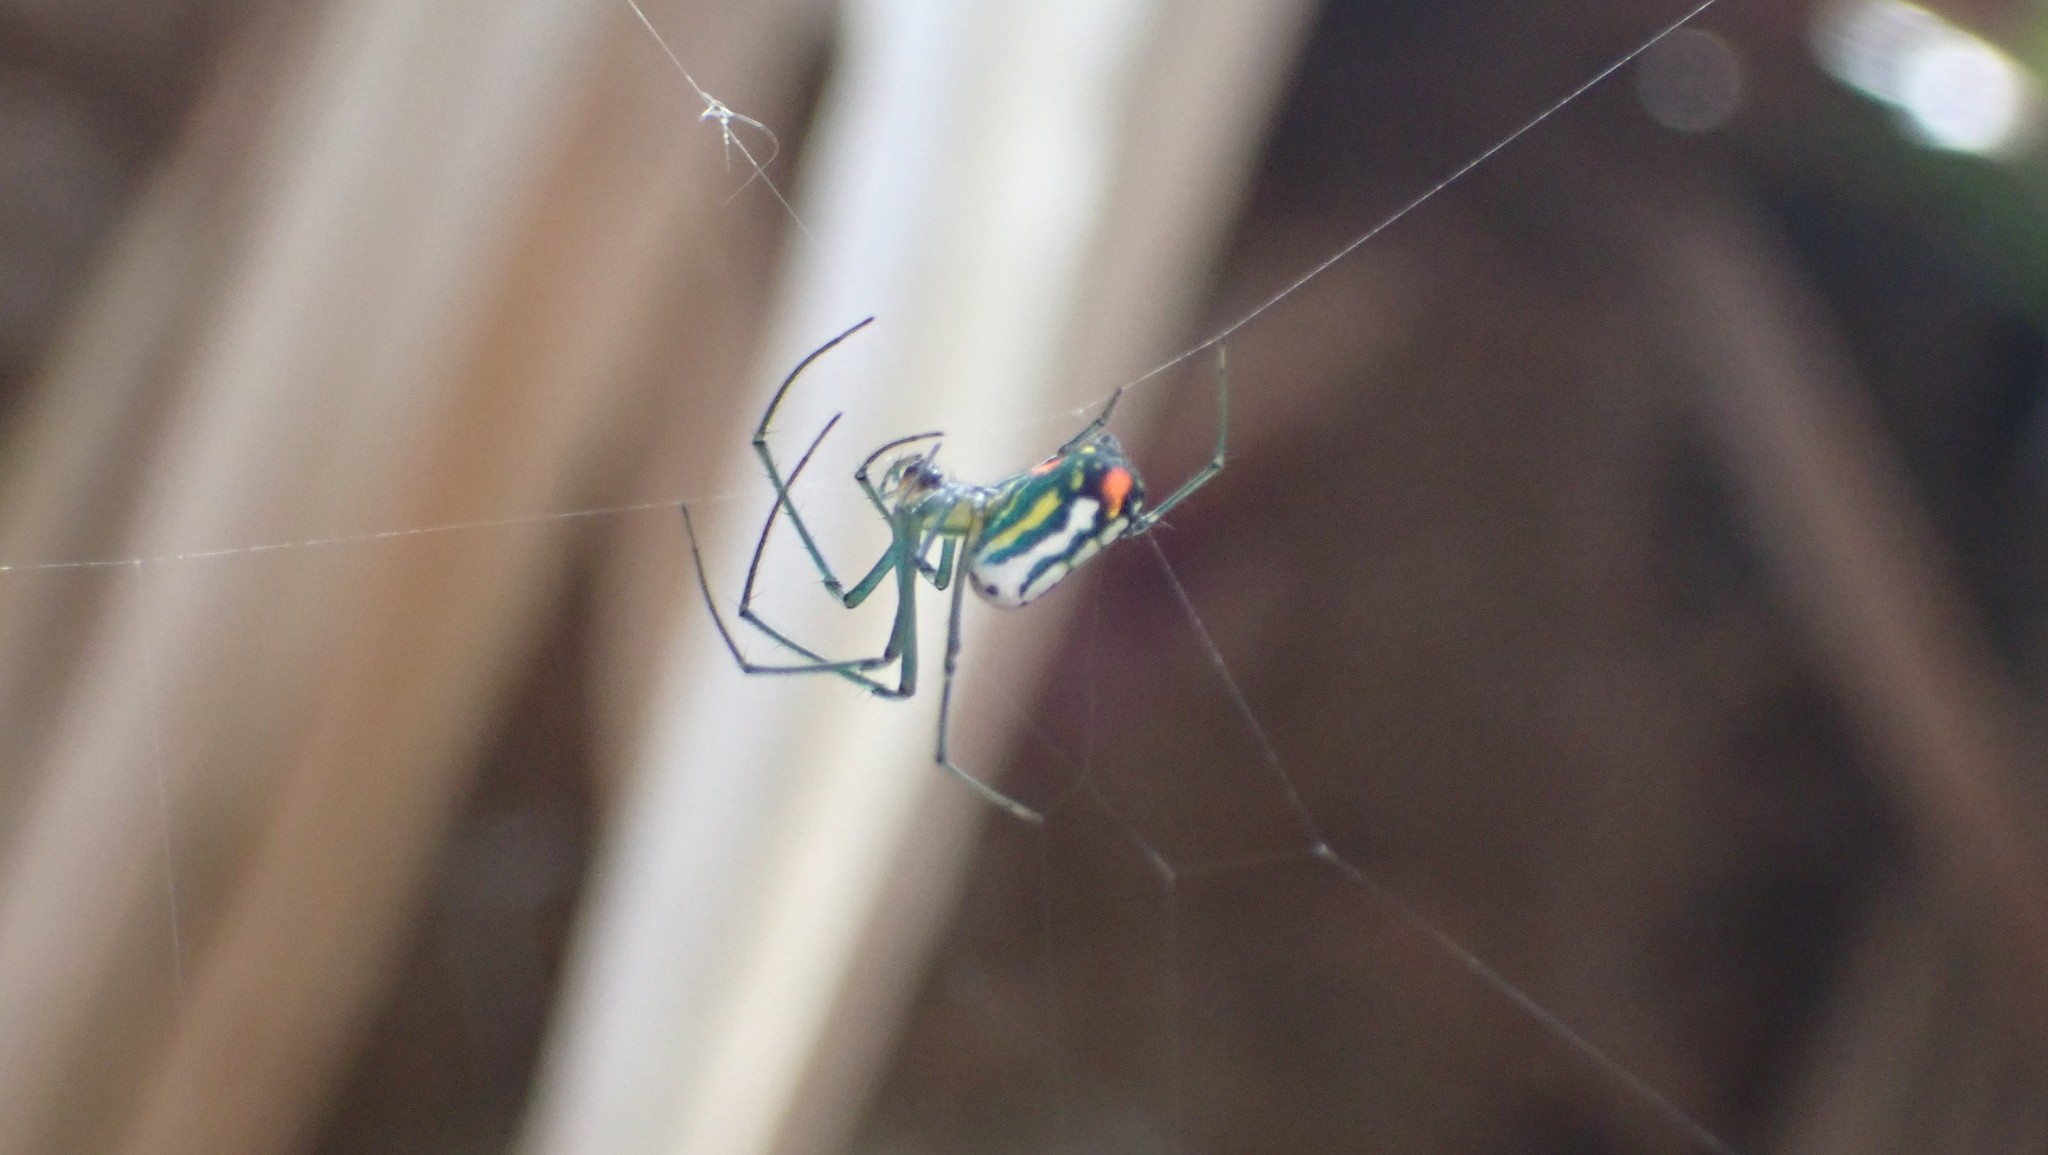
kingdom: Animalia
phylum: Arthropoda
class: Arachnida
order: Araneae
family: Tetragnathidae
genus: Leucauge
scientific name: Leucauge argyrobapta
